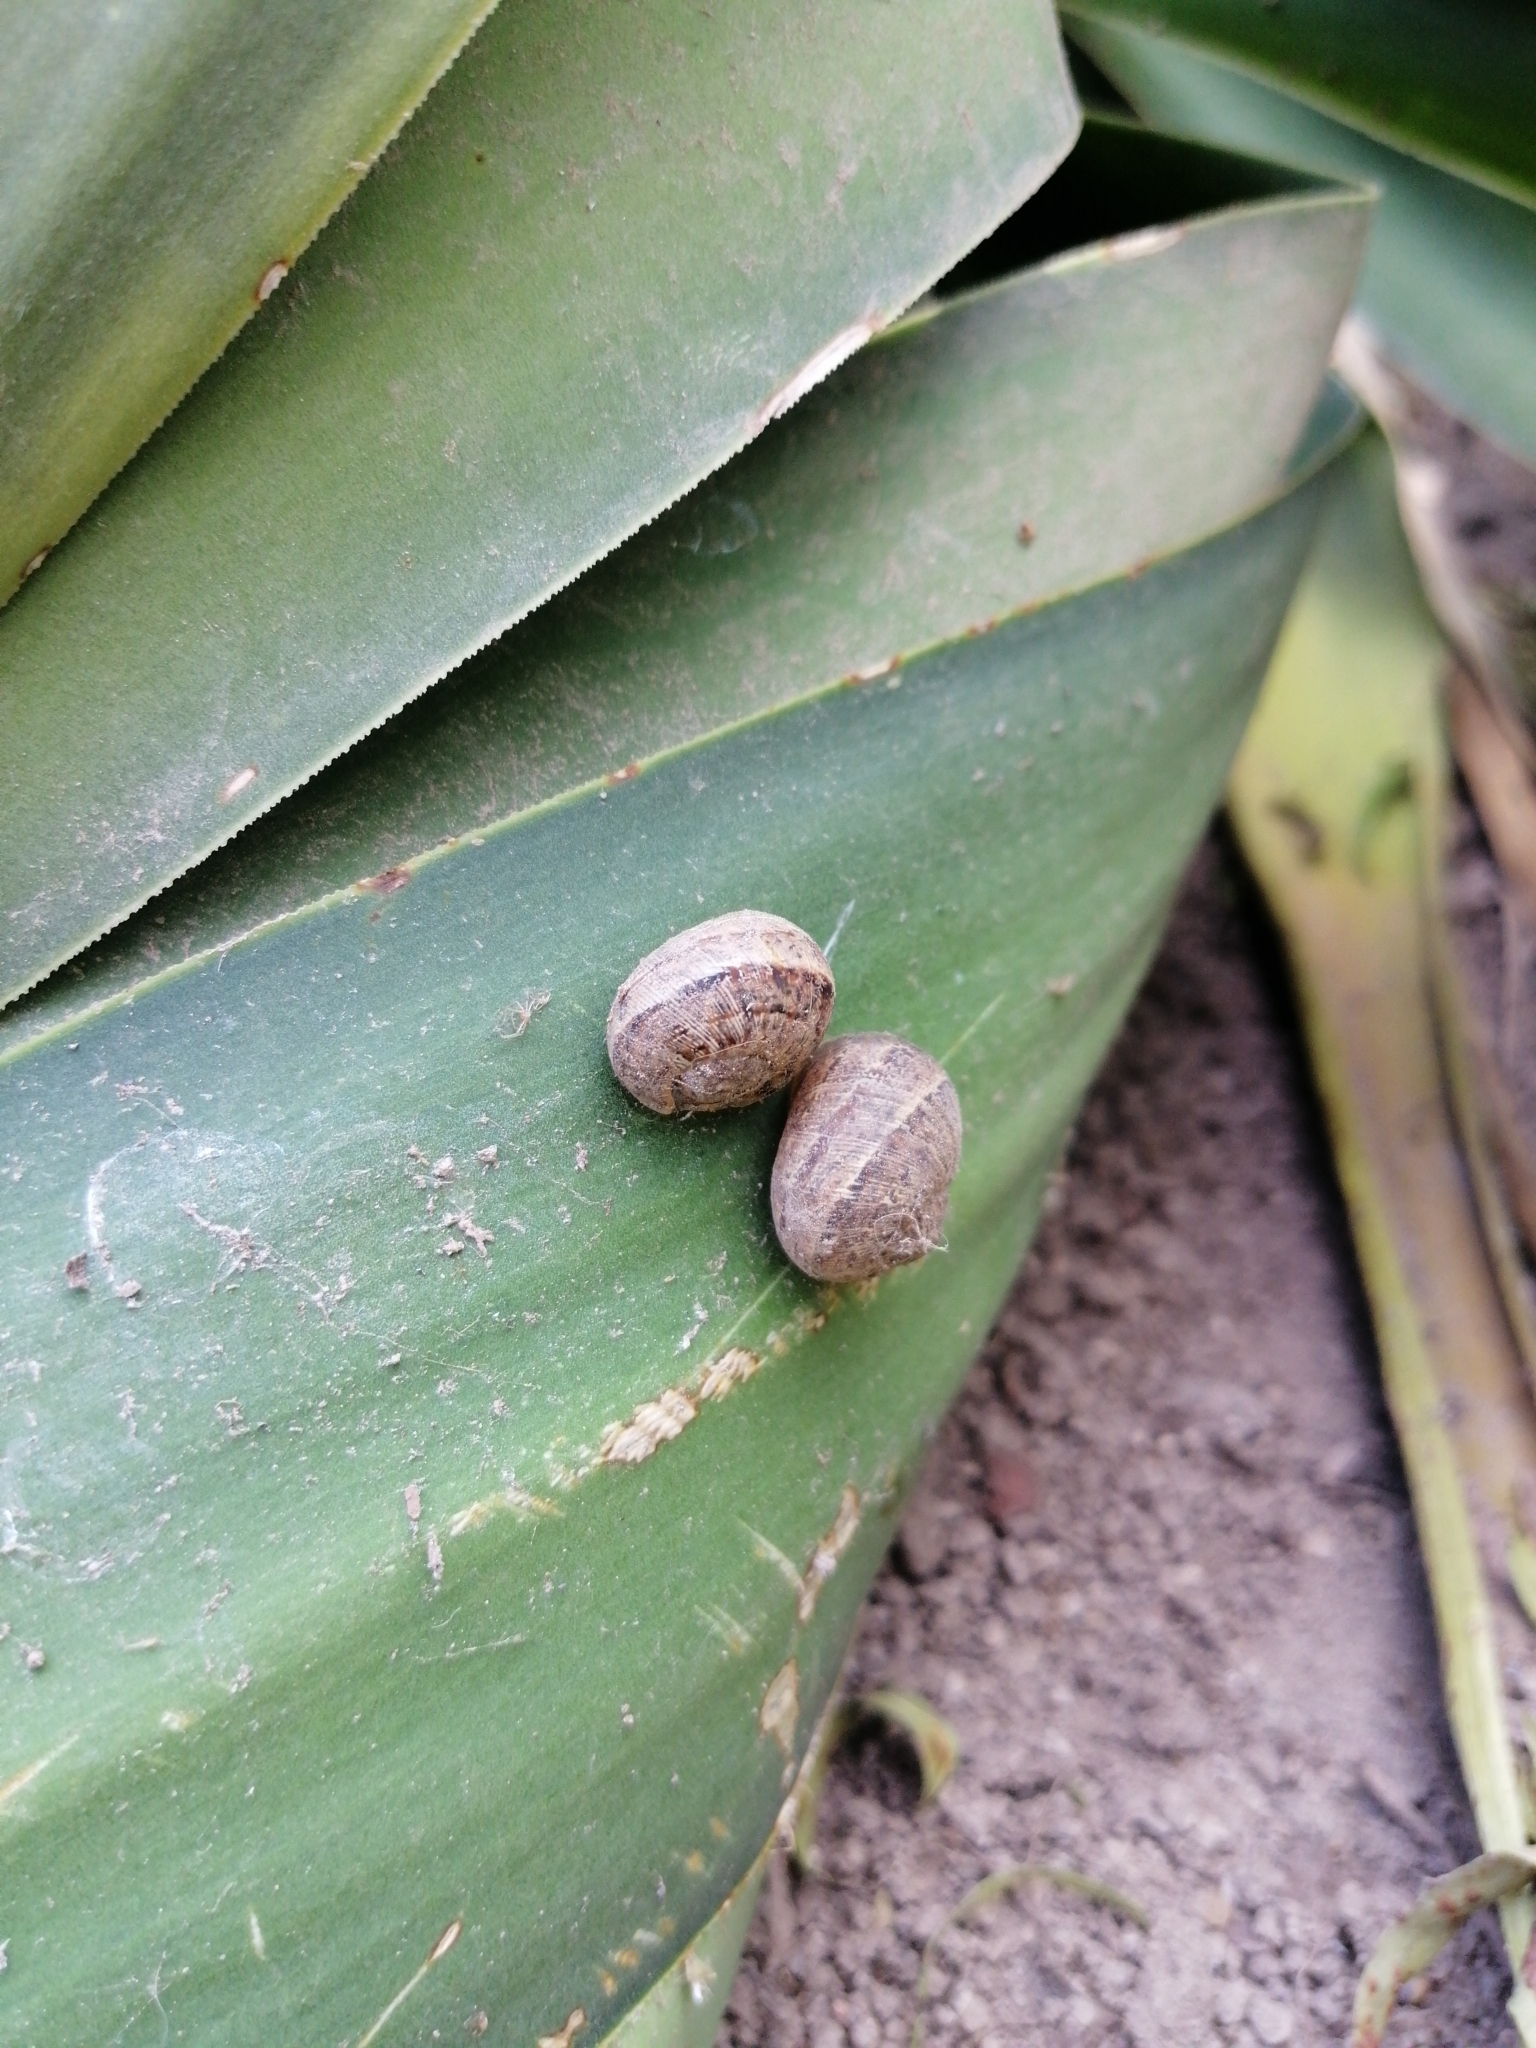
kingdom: Animalia
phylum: Mollusca
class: Gastropoda
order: Stylommatophora
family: Helicidae
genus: Cornu
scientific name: Cornu aspersum
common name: Brown garden snail
